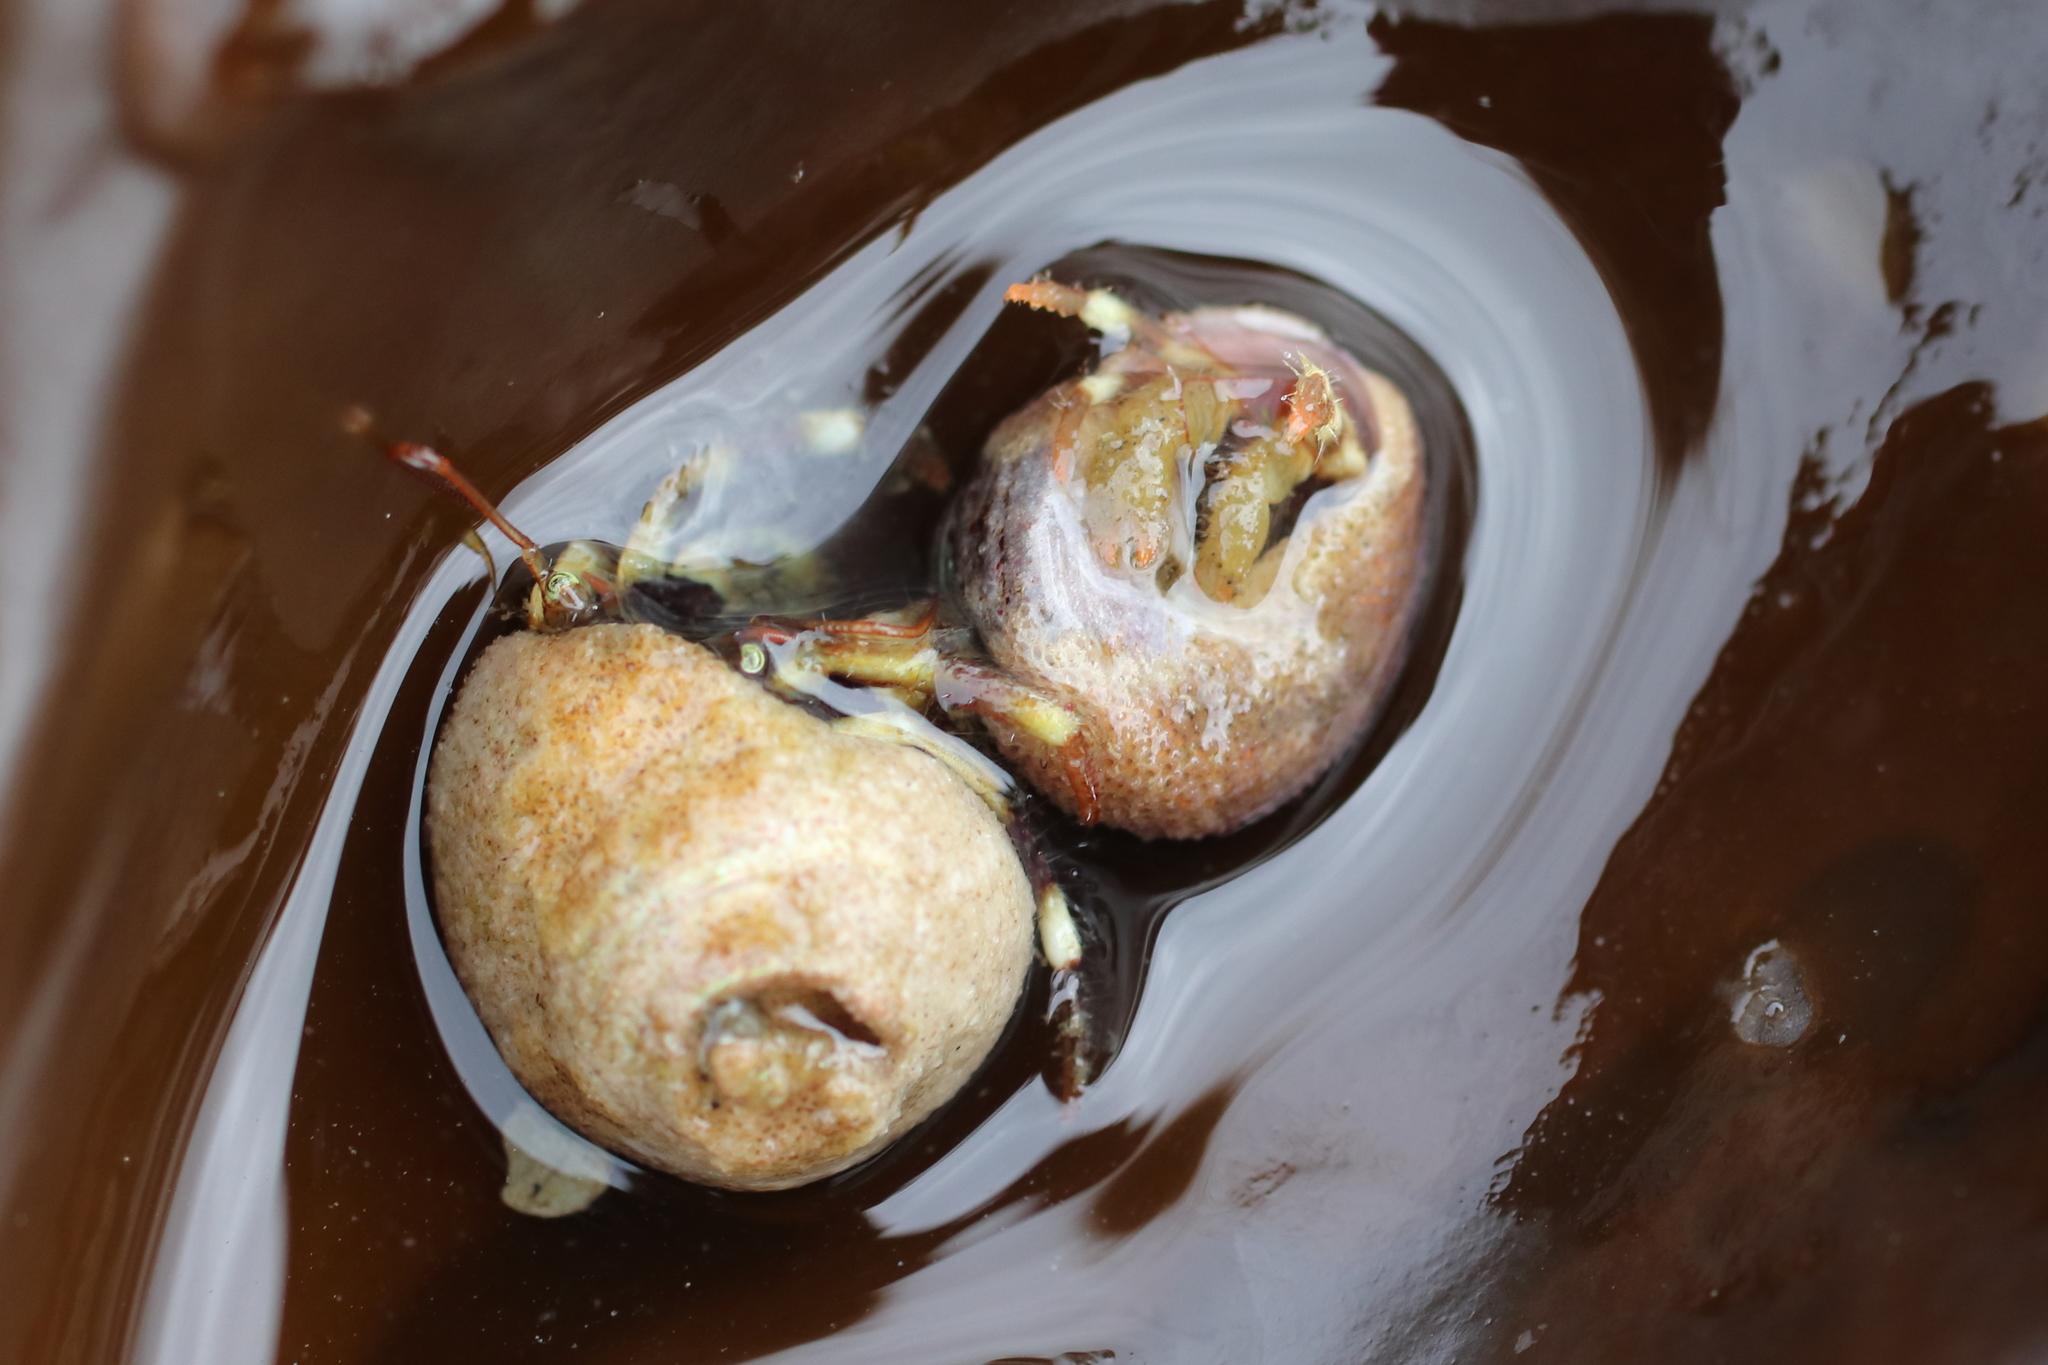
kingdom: Animalia
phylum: Arthropoda
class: Malacostraca
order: Decapoda
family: Paguridae
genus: Pagurus
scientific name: Pagurus caurinus
